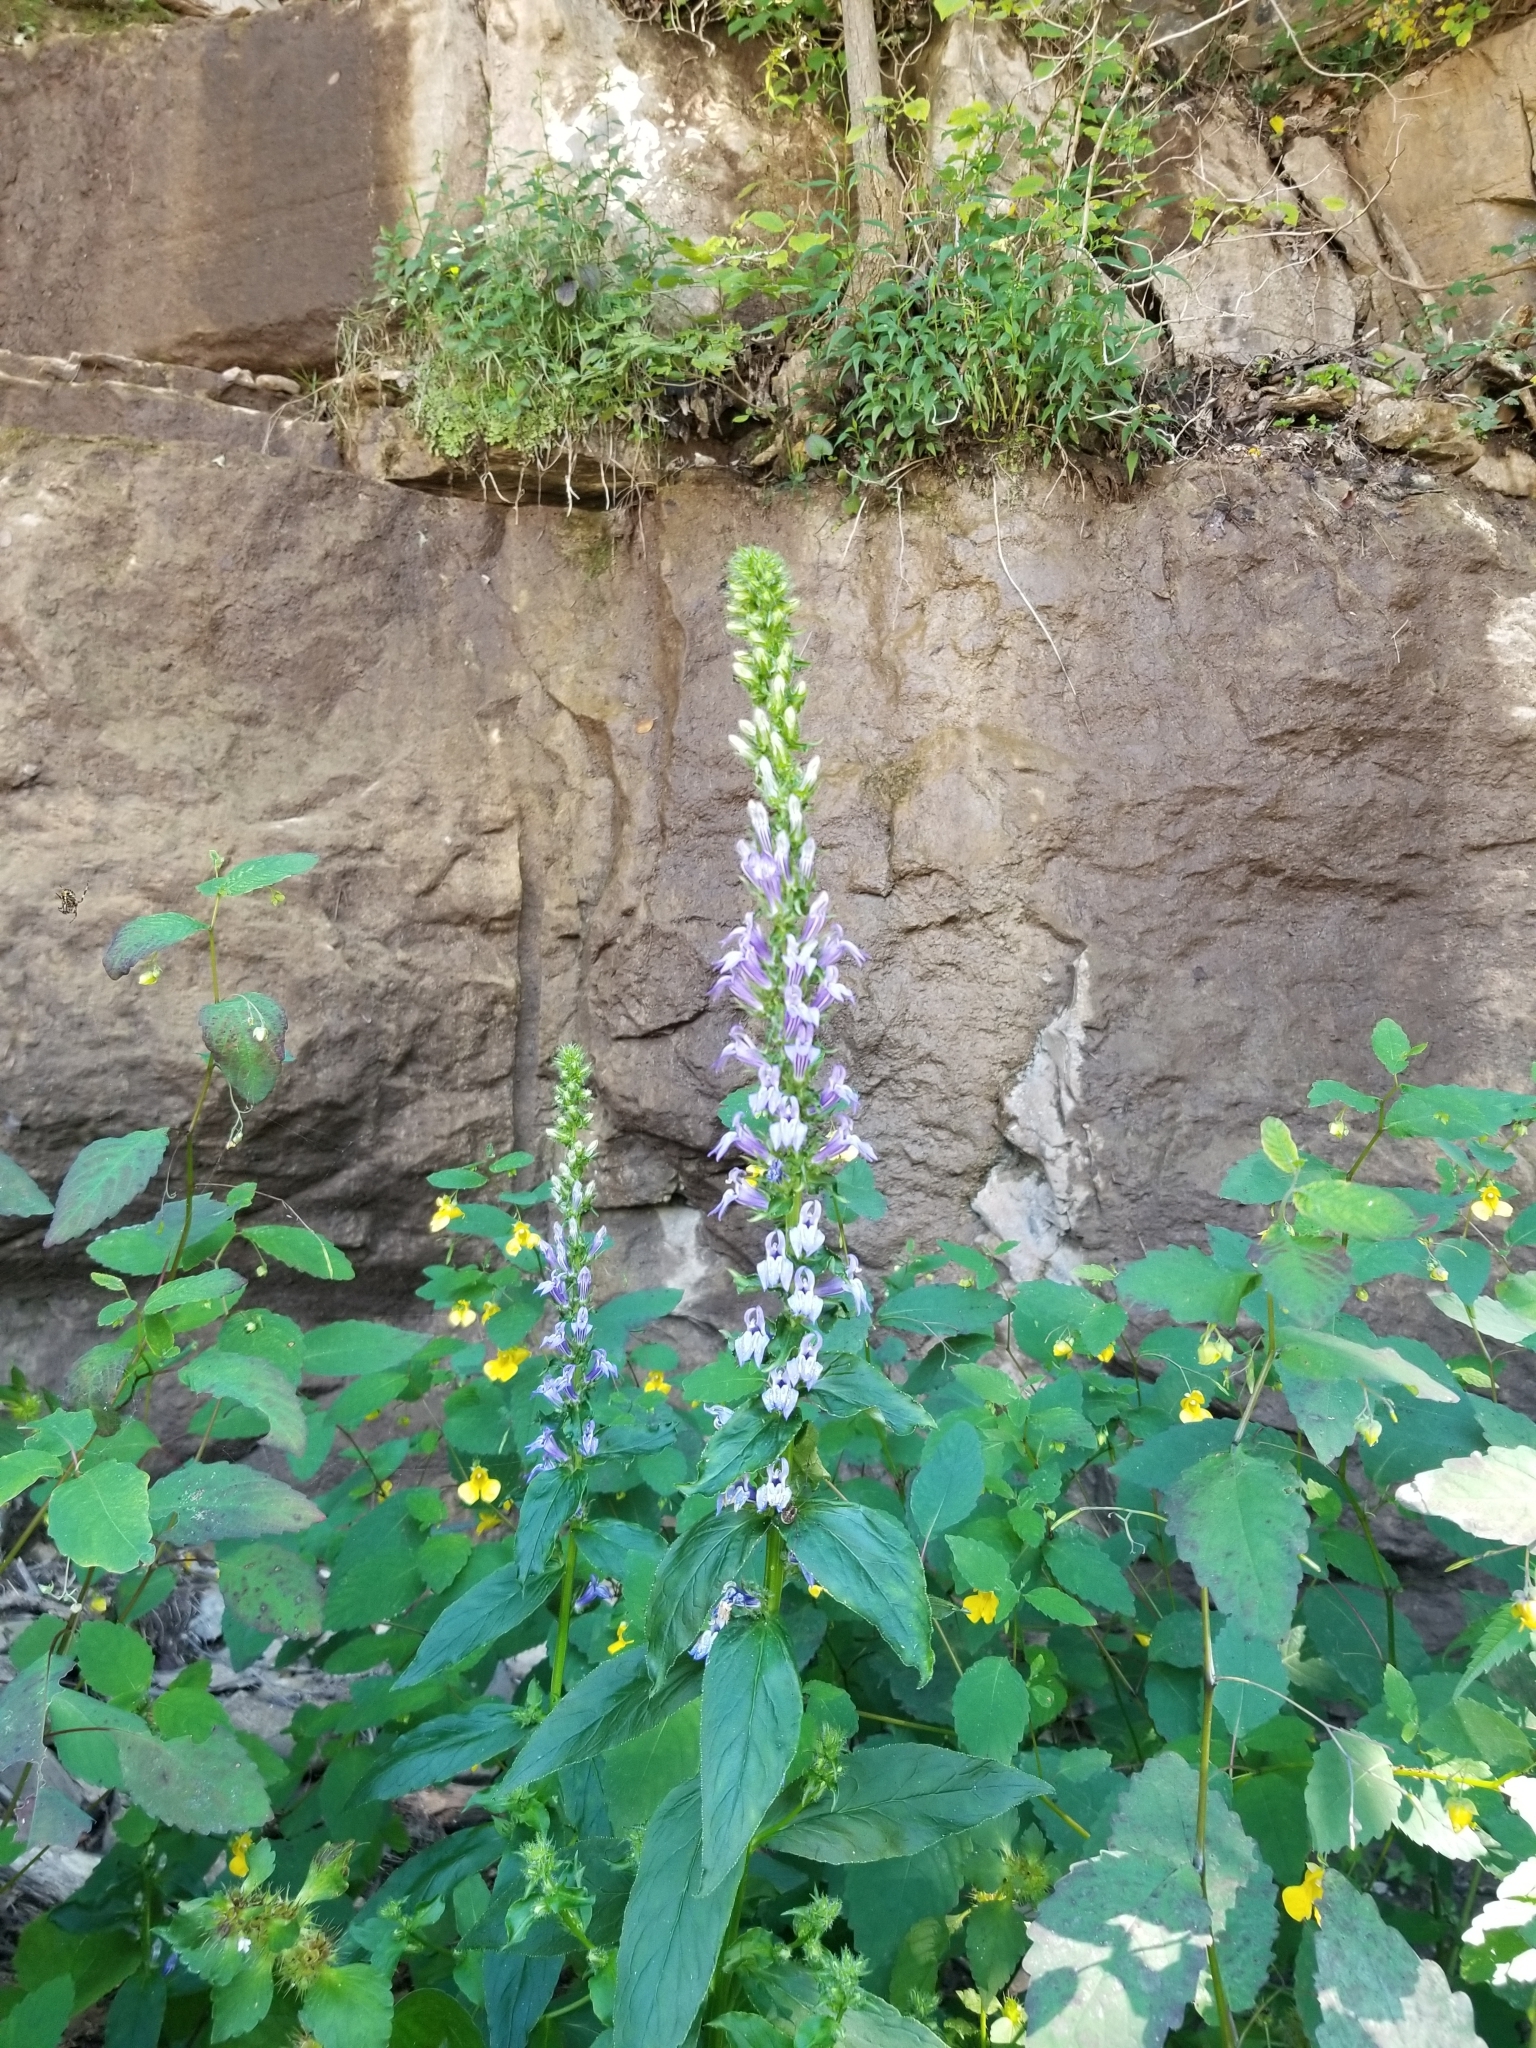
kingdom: Plantae
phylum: Tracheophyta
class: Magnoliopsida
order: Asterales
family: Campanulaceae
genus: Lobelia
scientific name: Lobelia siphilitica
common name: Great lobelia
